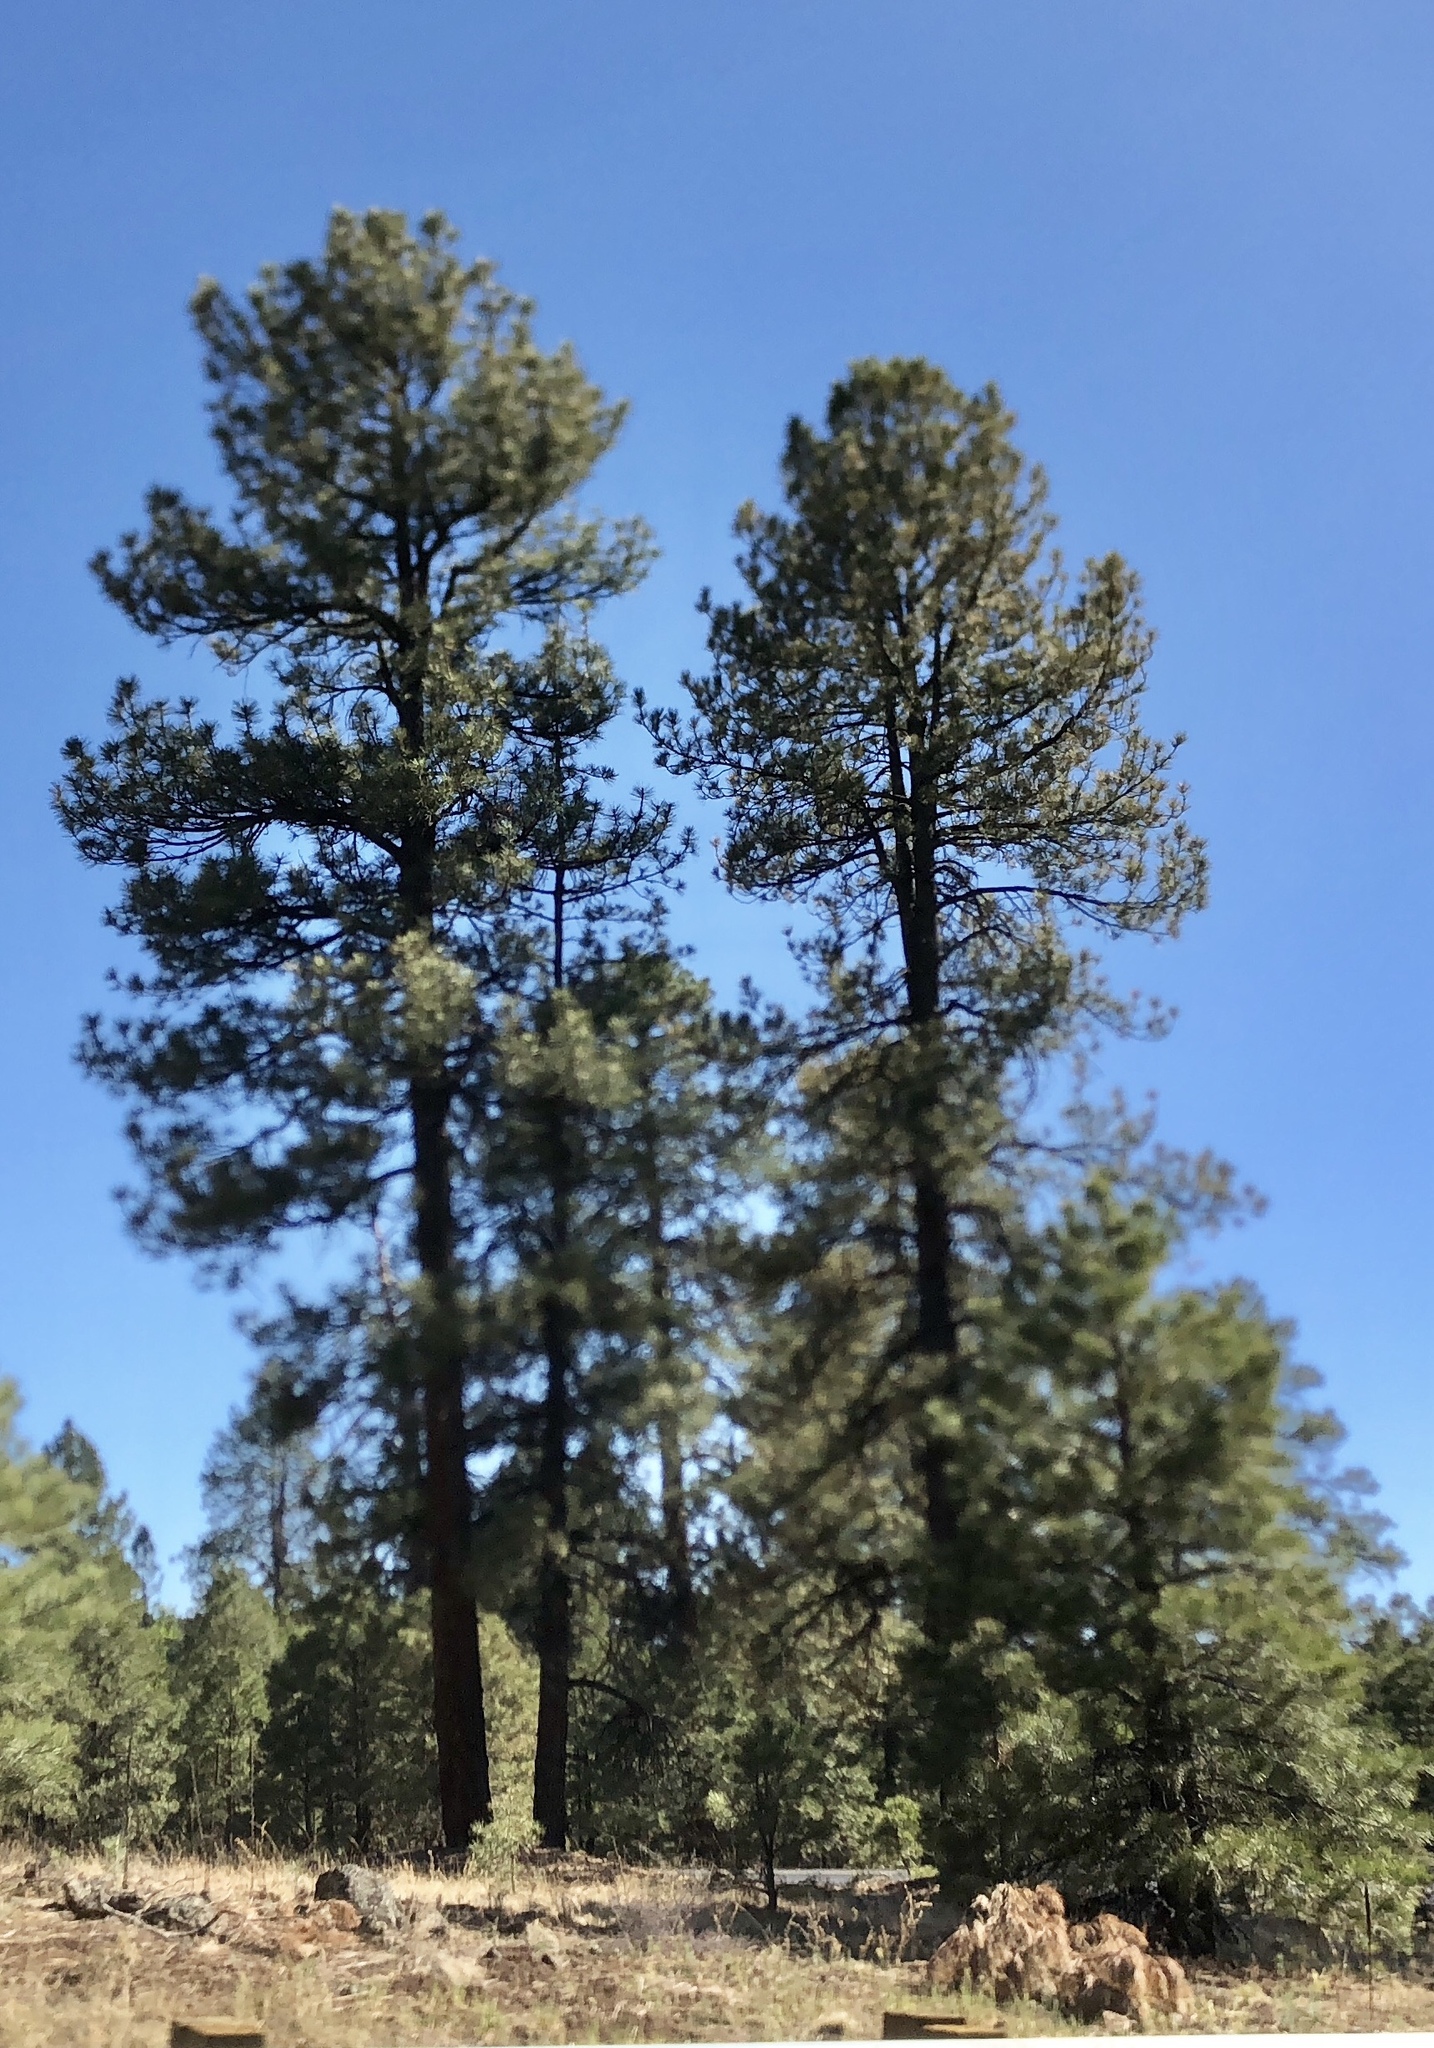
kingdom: Plantae
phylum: Tracheophyta
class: Pinopsida
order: Pinales
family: Pinaceae
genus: Pinus
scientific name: Pinus ponderosa
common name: Western yellow-pine
